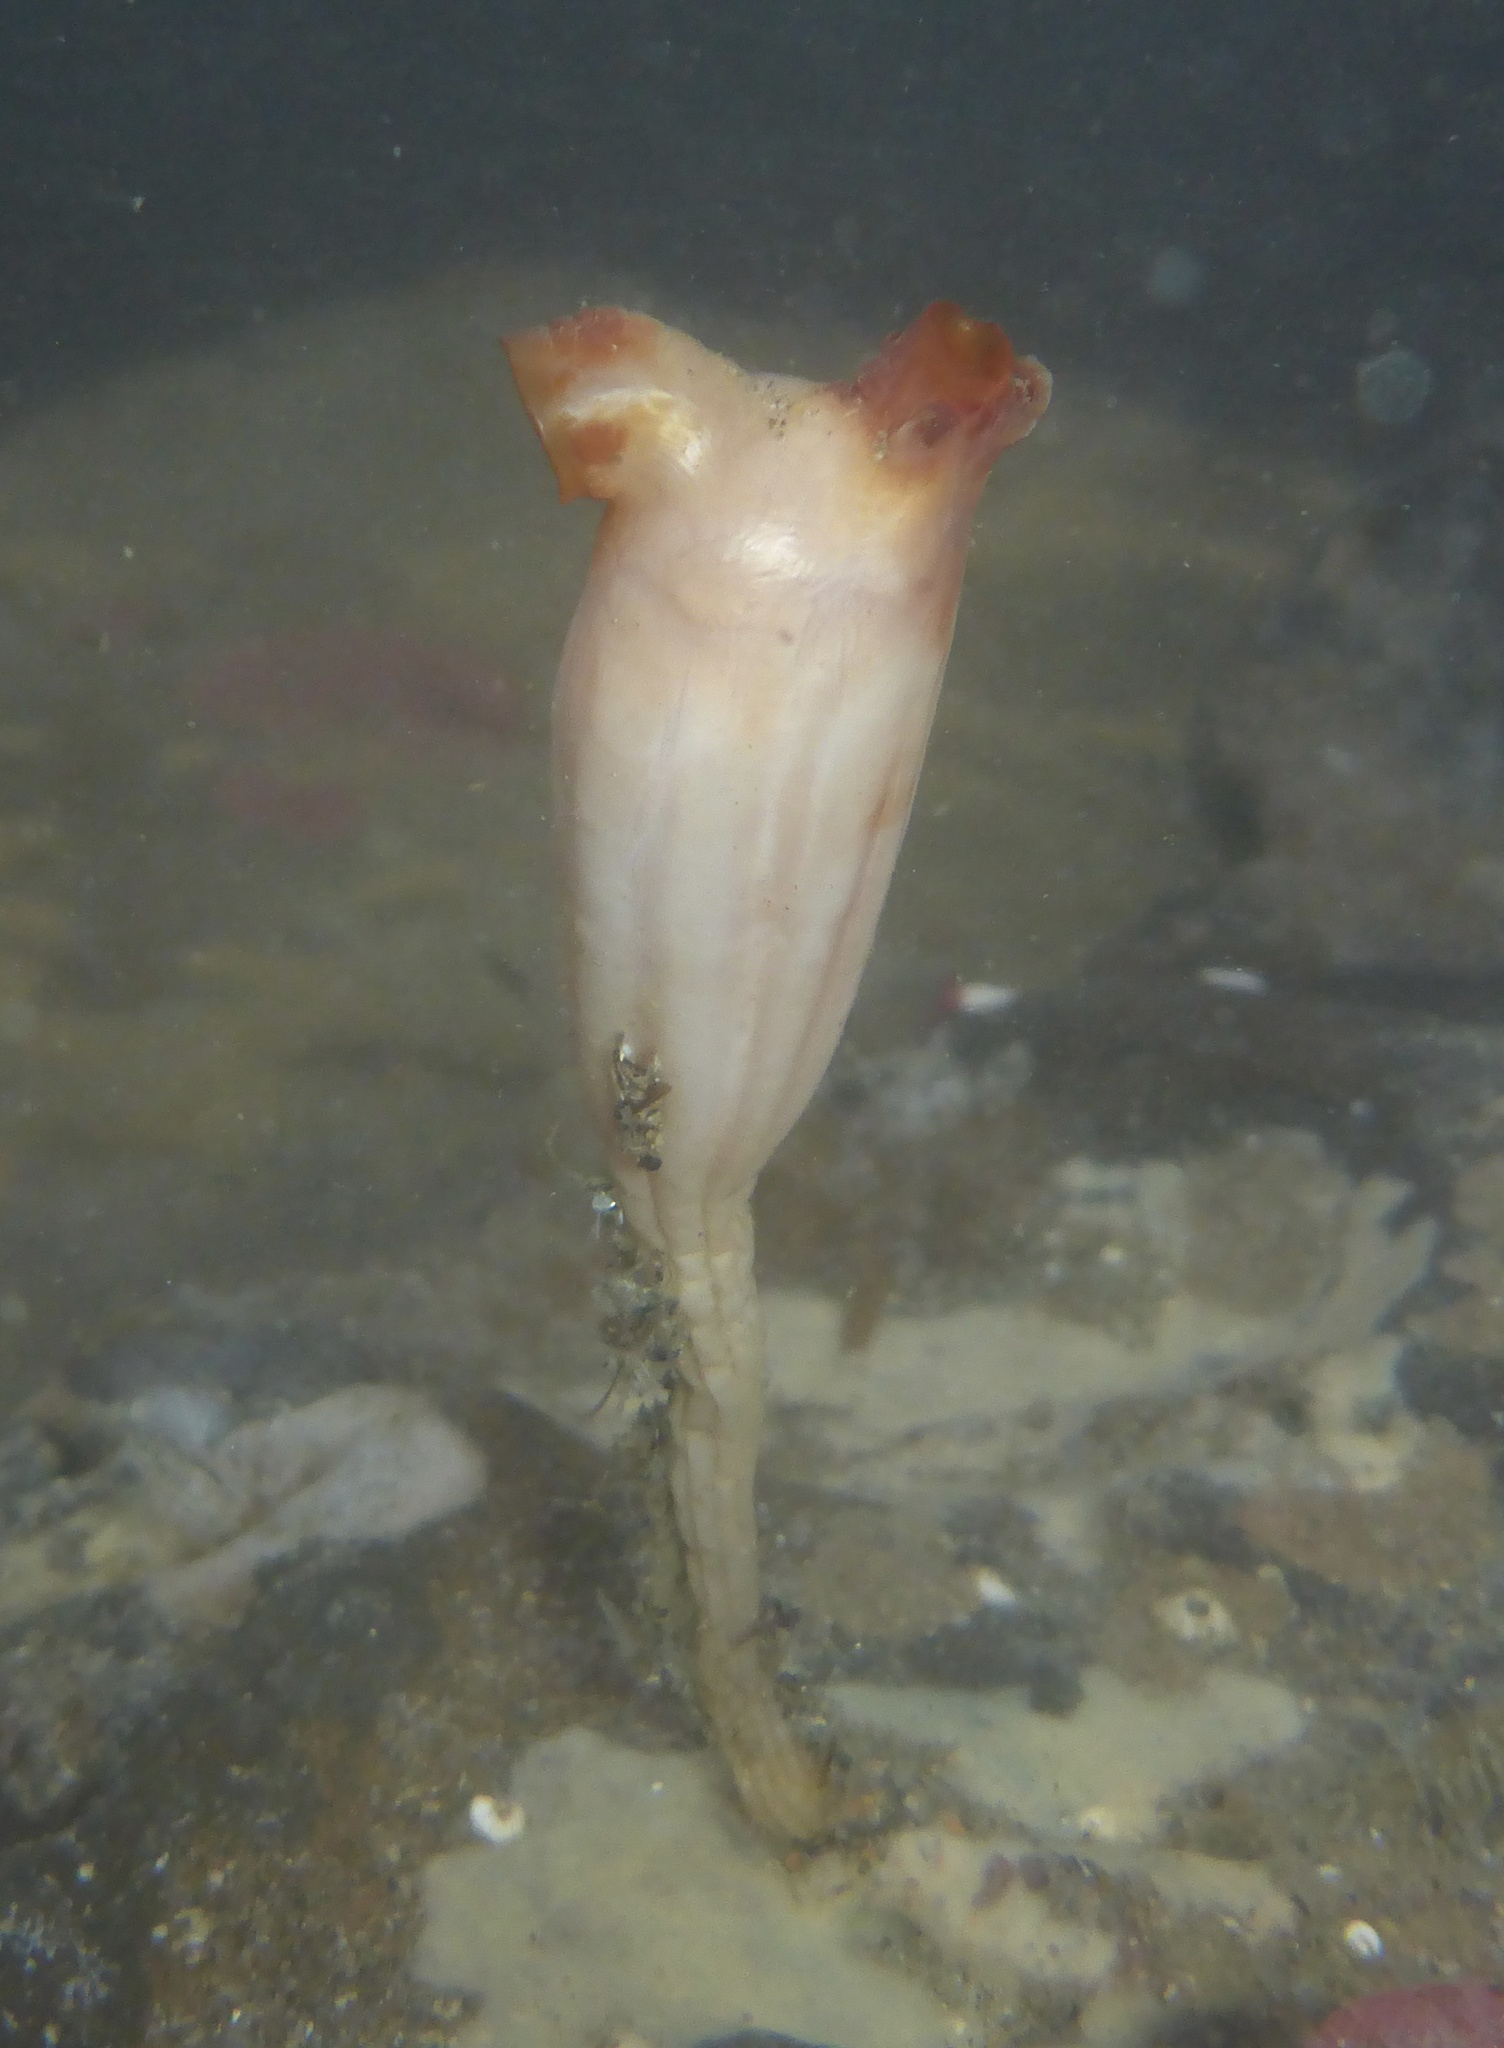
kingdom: Animalia
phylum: Chordata
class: Ascidiacea
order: Stolidobranchia
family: Styelidae
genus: Styela
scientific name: Styela montereyensis
